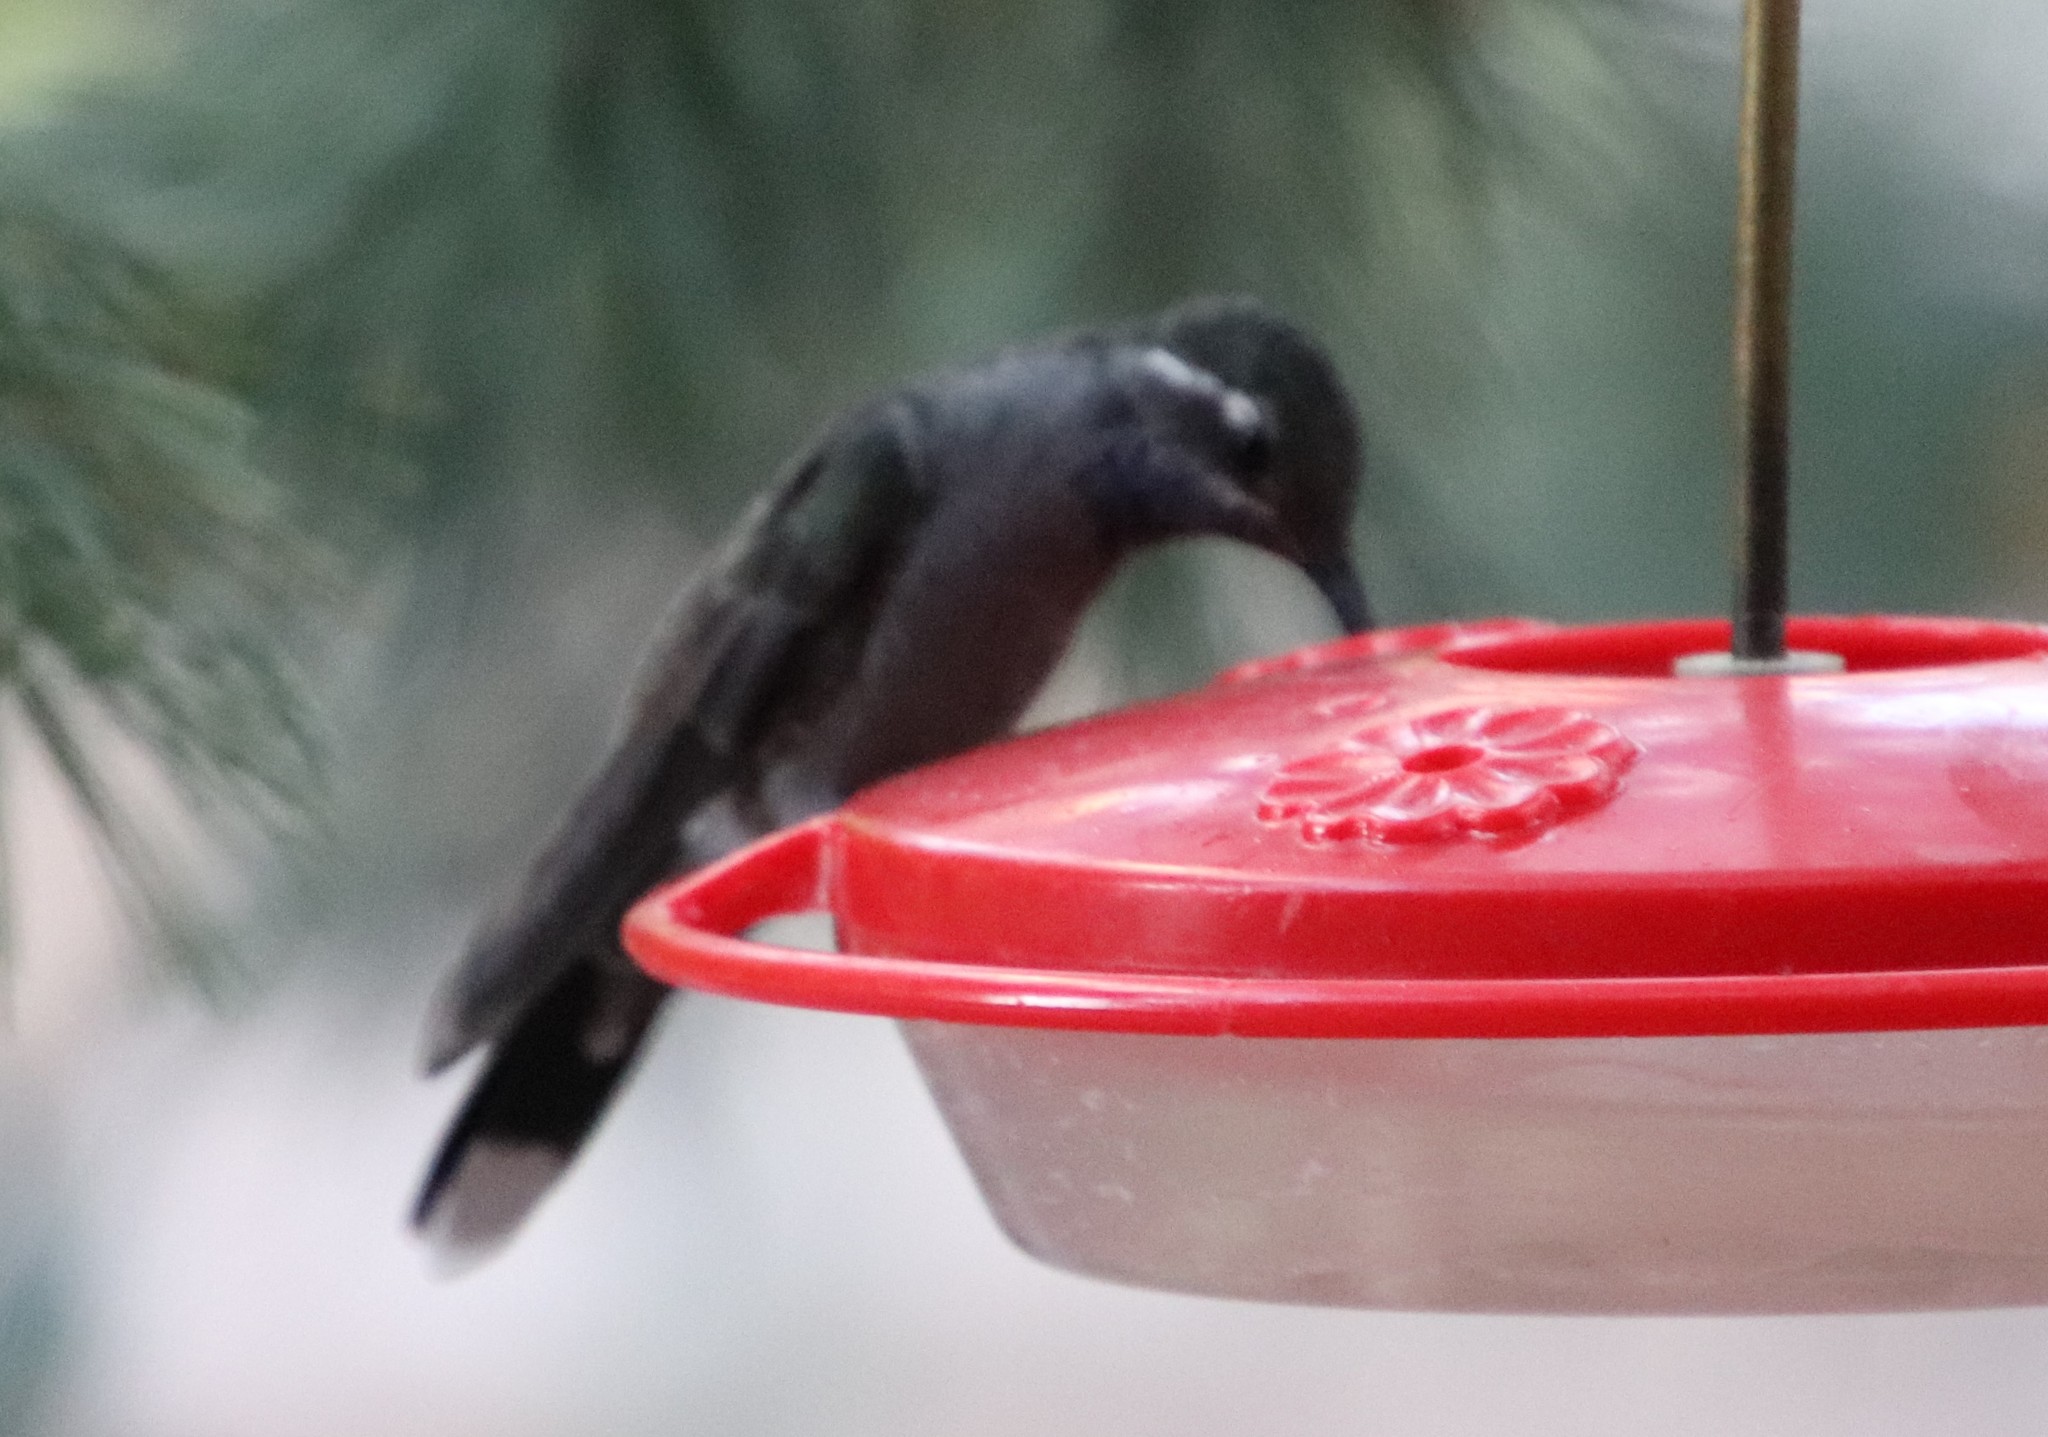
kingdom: Animalia
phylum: Chordata
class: Aves
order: Apodiformes
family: Trochilidae
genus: Lampornis
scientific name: Lampornis clemenciae
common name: Blue-throated mountaingem
